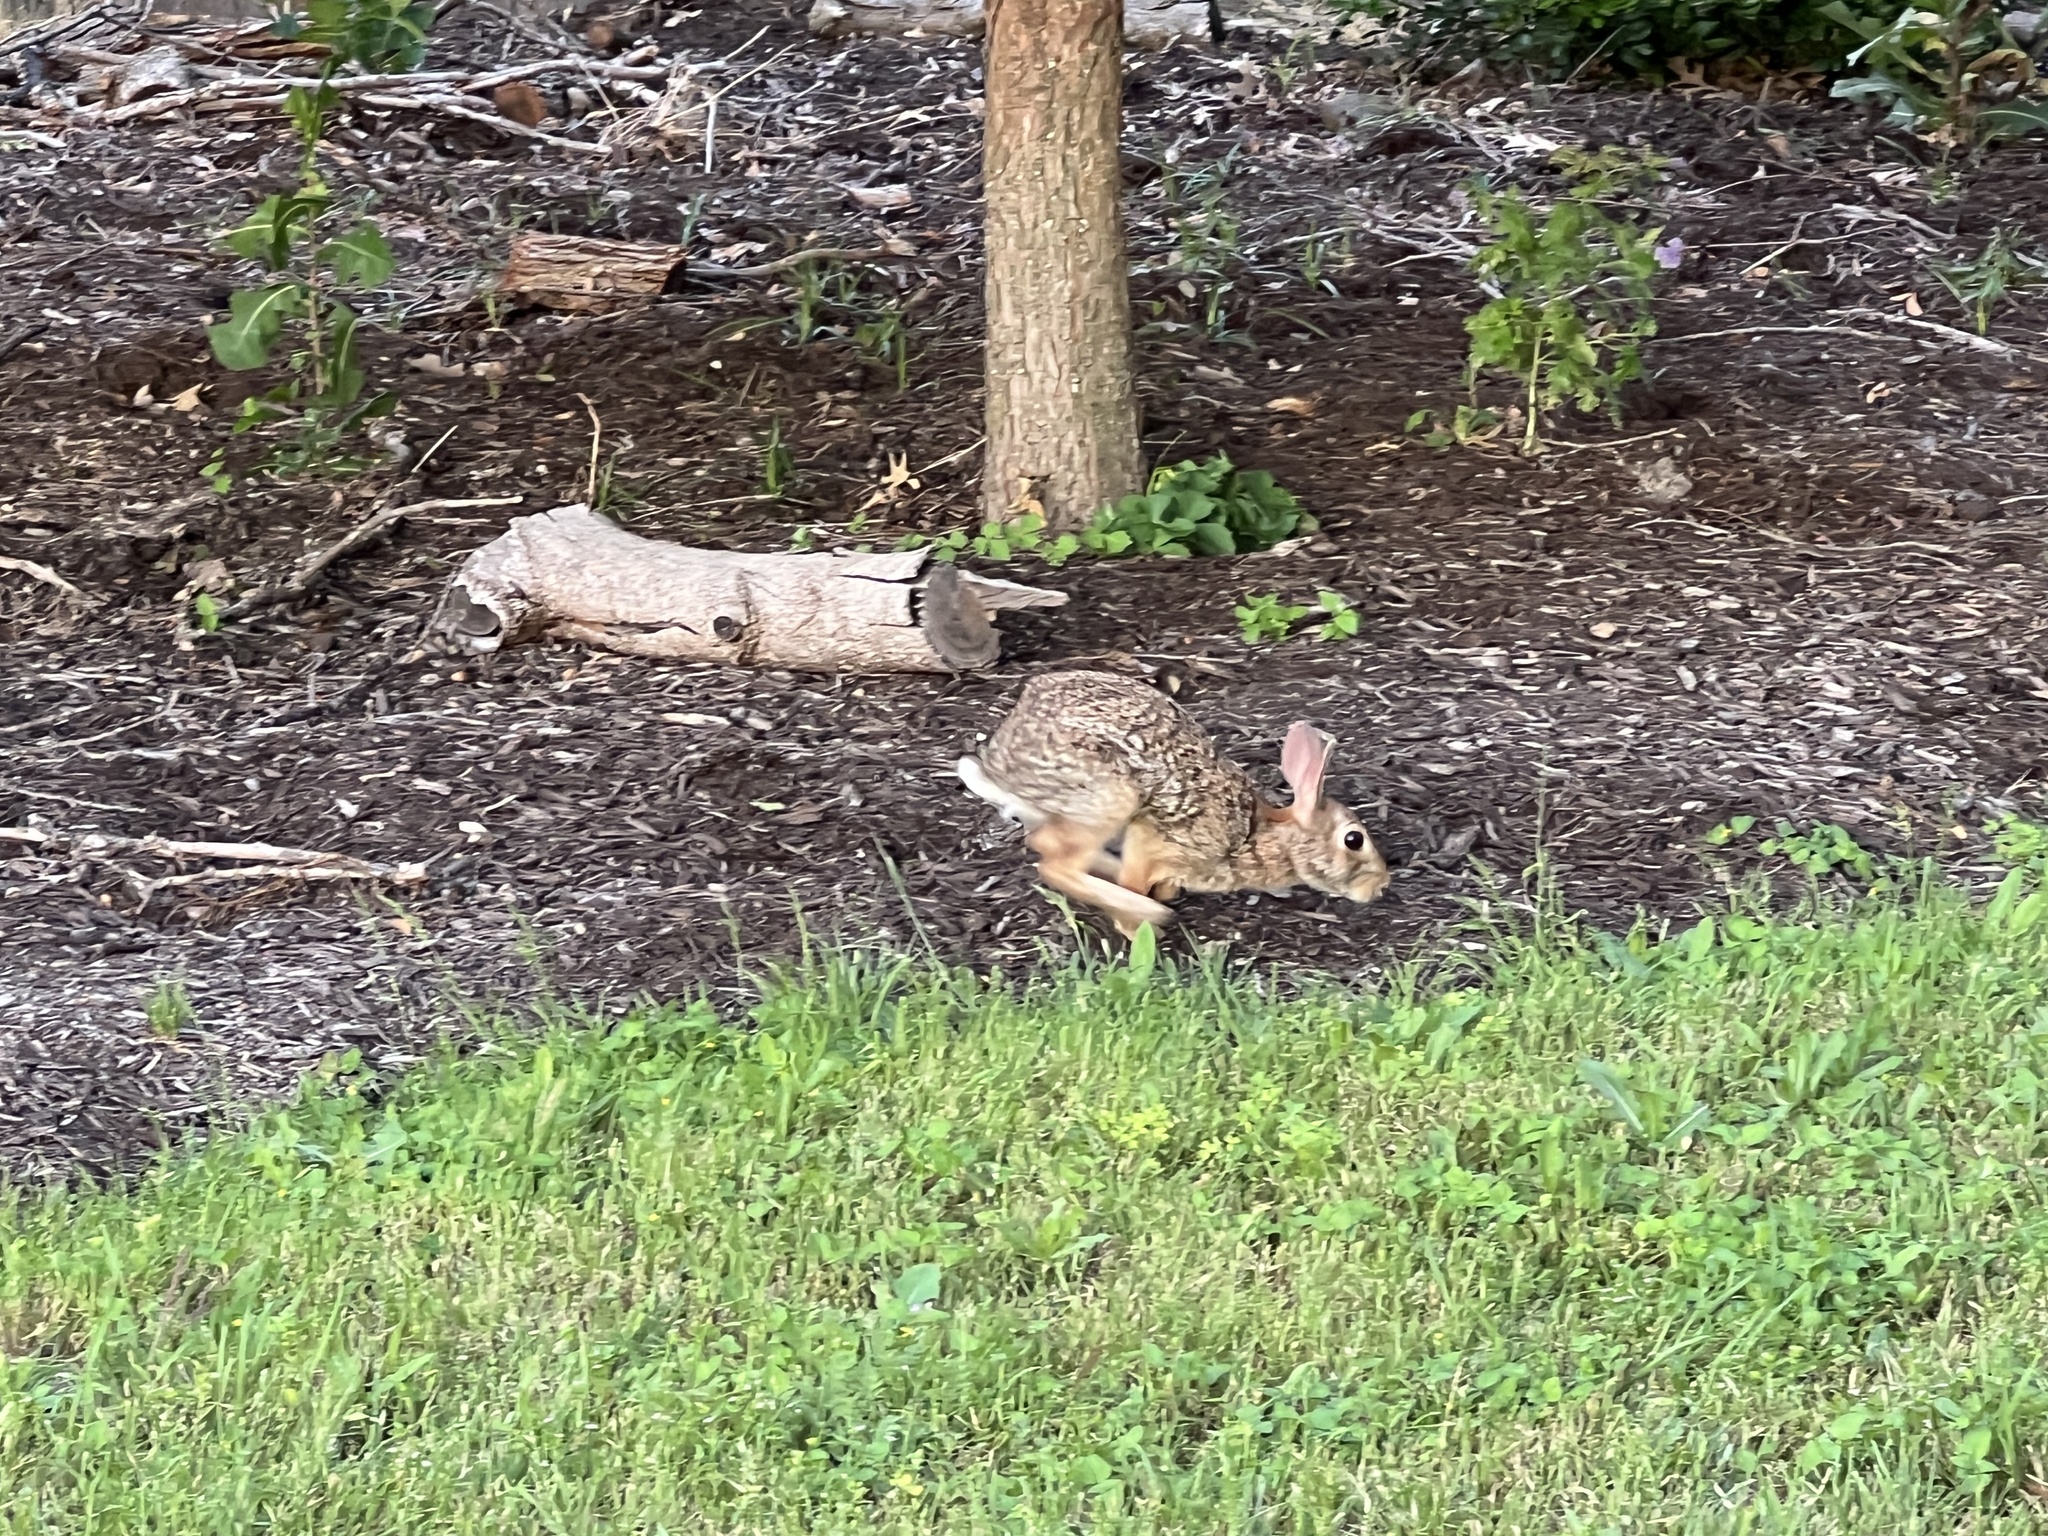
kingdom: Animalia
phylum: Chordata
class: Mammalia
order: Lagomorpha
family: Leporidae
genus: Sylvilagus
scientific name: Sylvilagus floridanus
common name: Eastern cottontail
